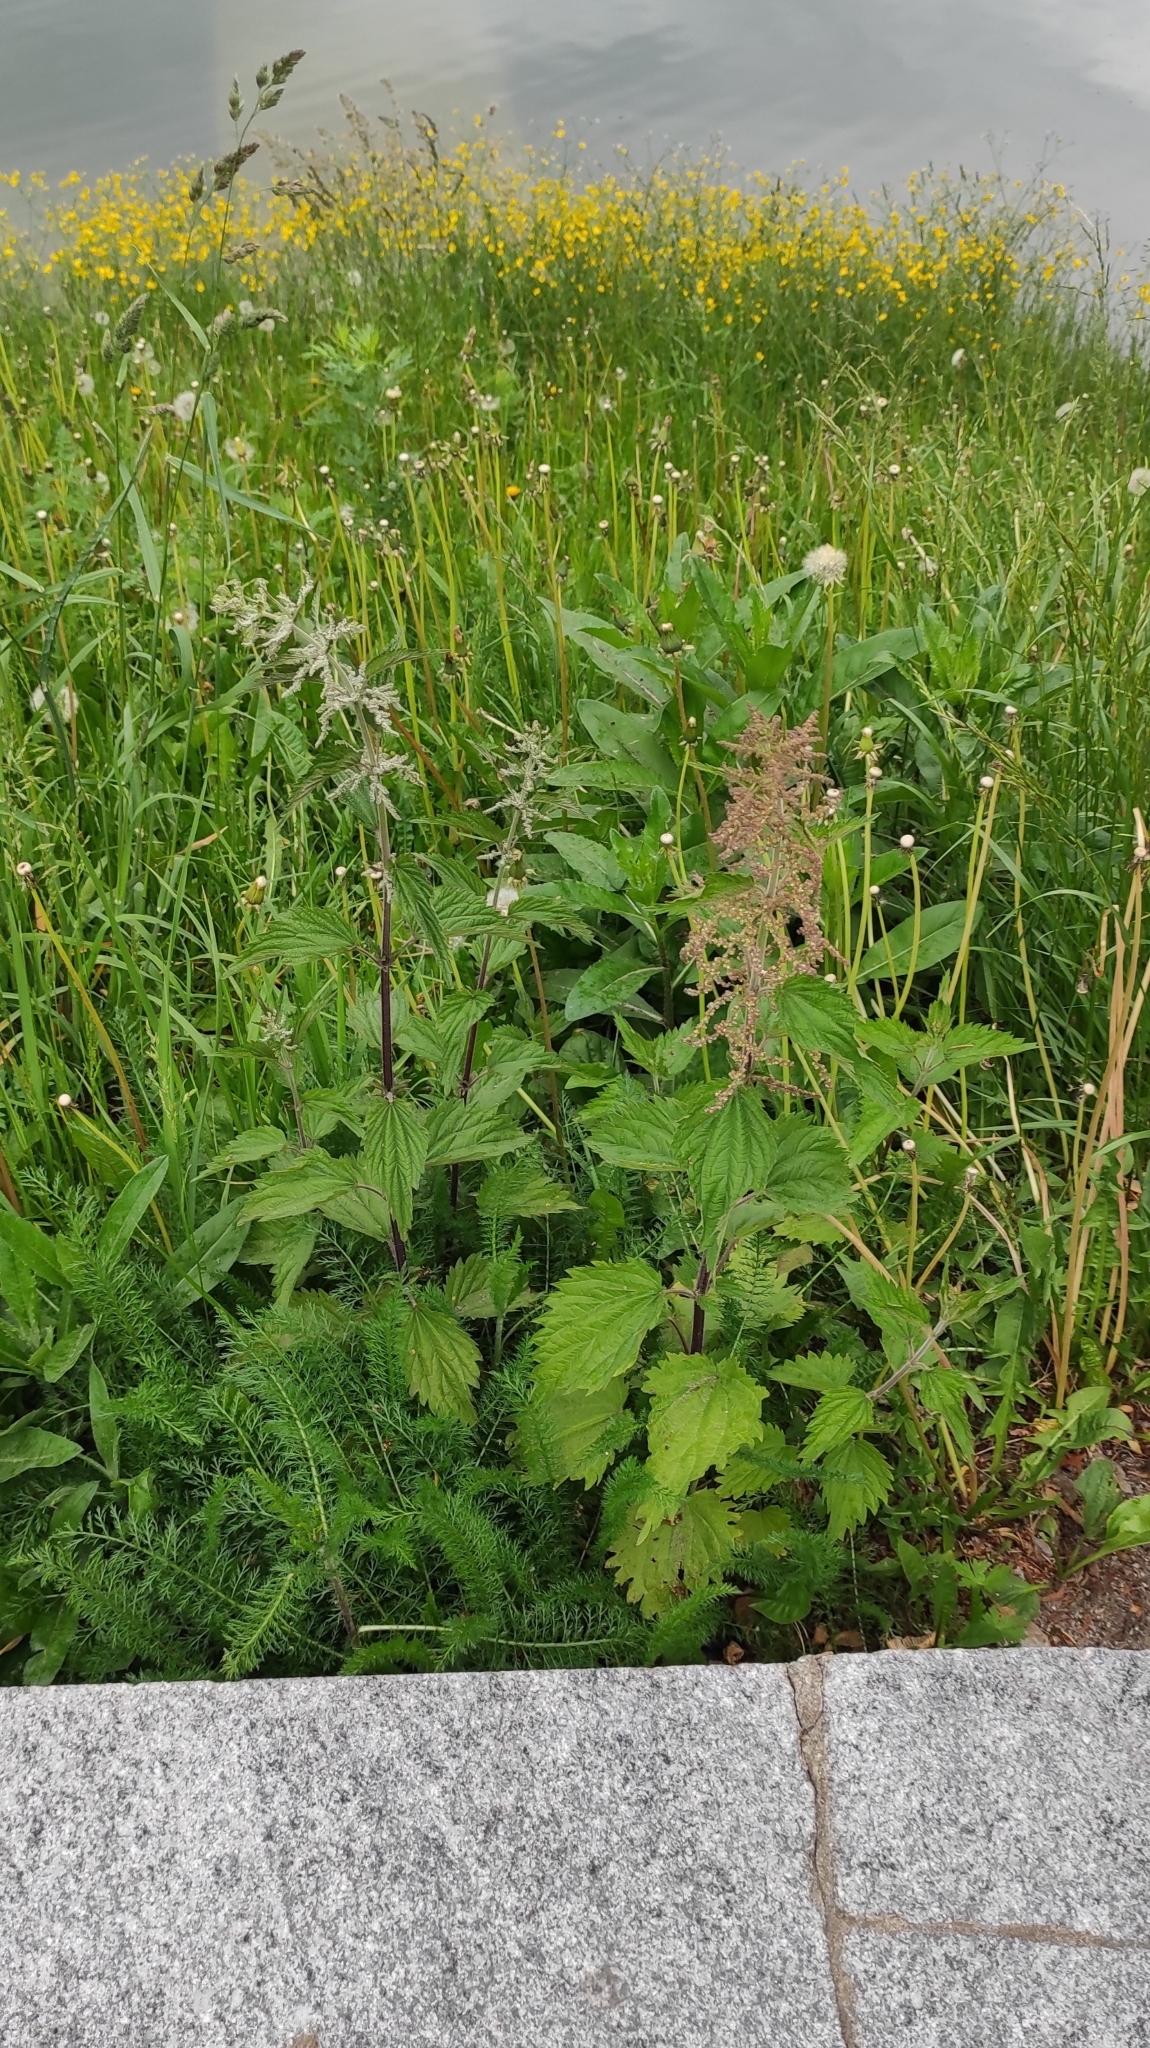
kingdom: Plantae
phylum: Tracheophyta
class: Magnoliopsida
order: Rosales
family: Urticaceae
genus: Urtica
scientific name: Urtica dioica
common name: Common nettle
